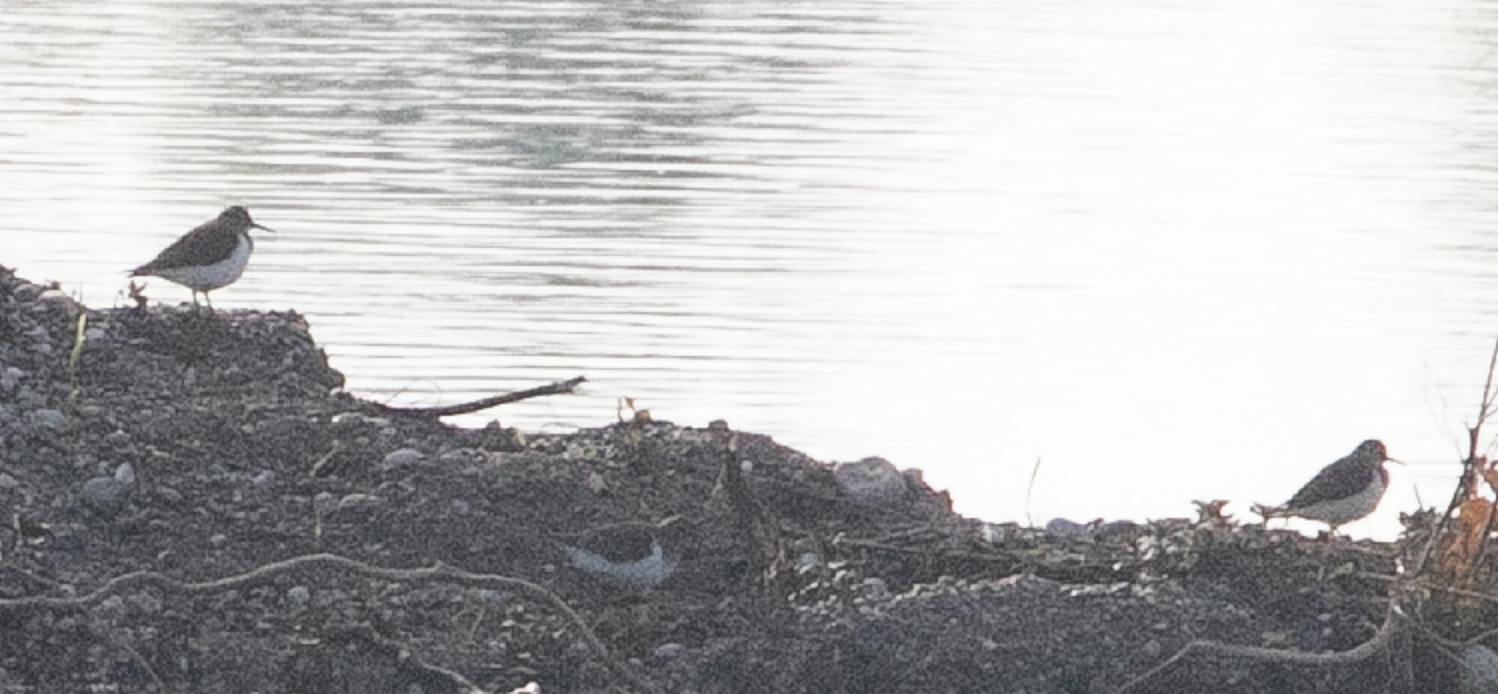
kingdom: Animalia
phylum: Chordata
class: Aves
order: Charadriiformes
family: Scolopacidae
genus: Actitis
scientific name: Actitis hypoleucos
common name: Common sandpiper
